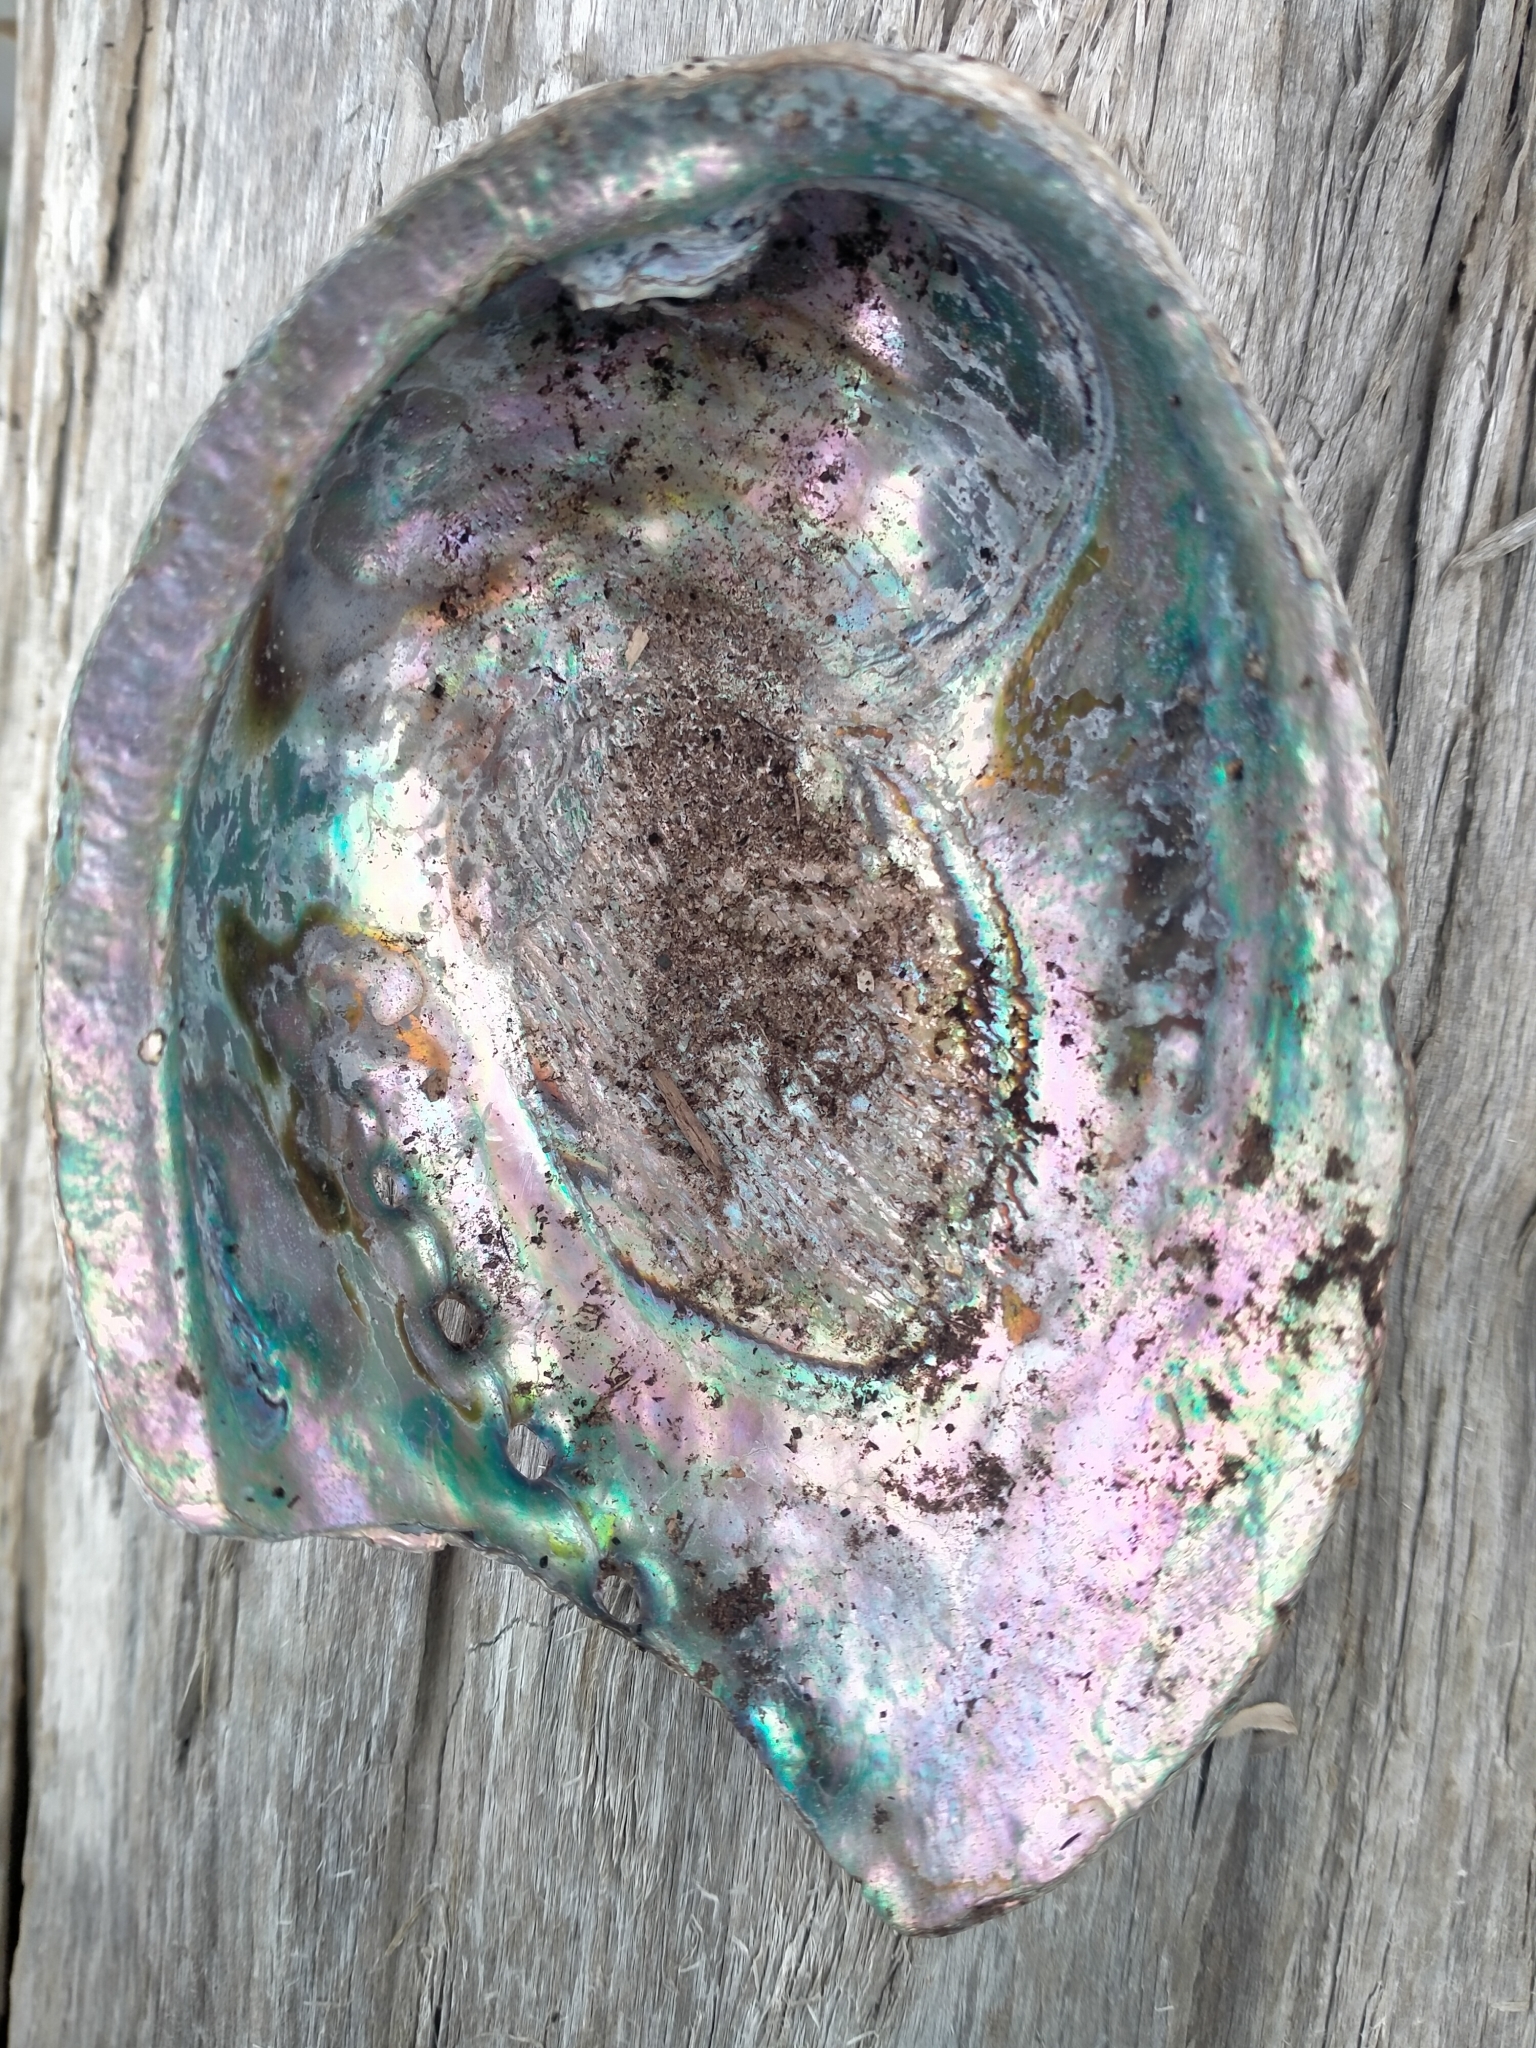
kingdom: Animalia
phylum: Mollusca
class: Gastropoda
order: Lepetellida
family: Haliotidae
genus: Haliotis
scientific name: Haliotis iris
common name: Abalone
